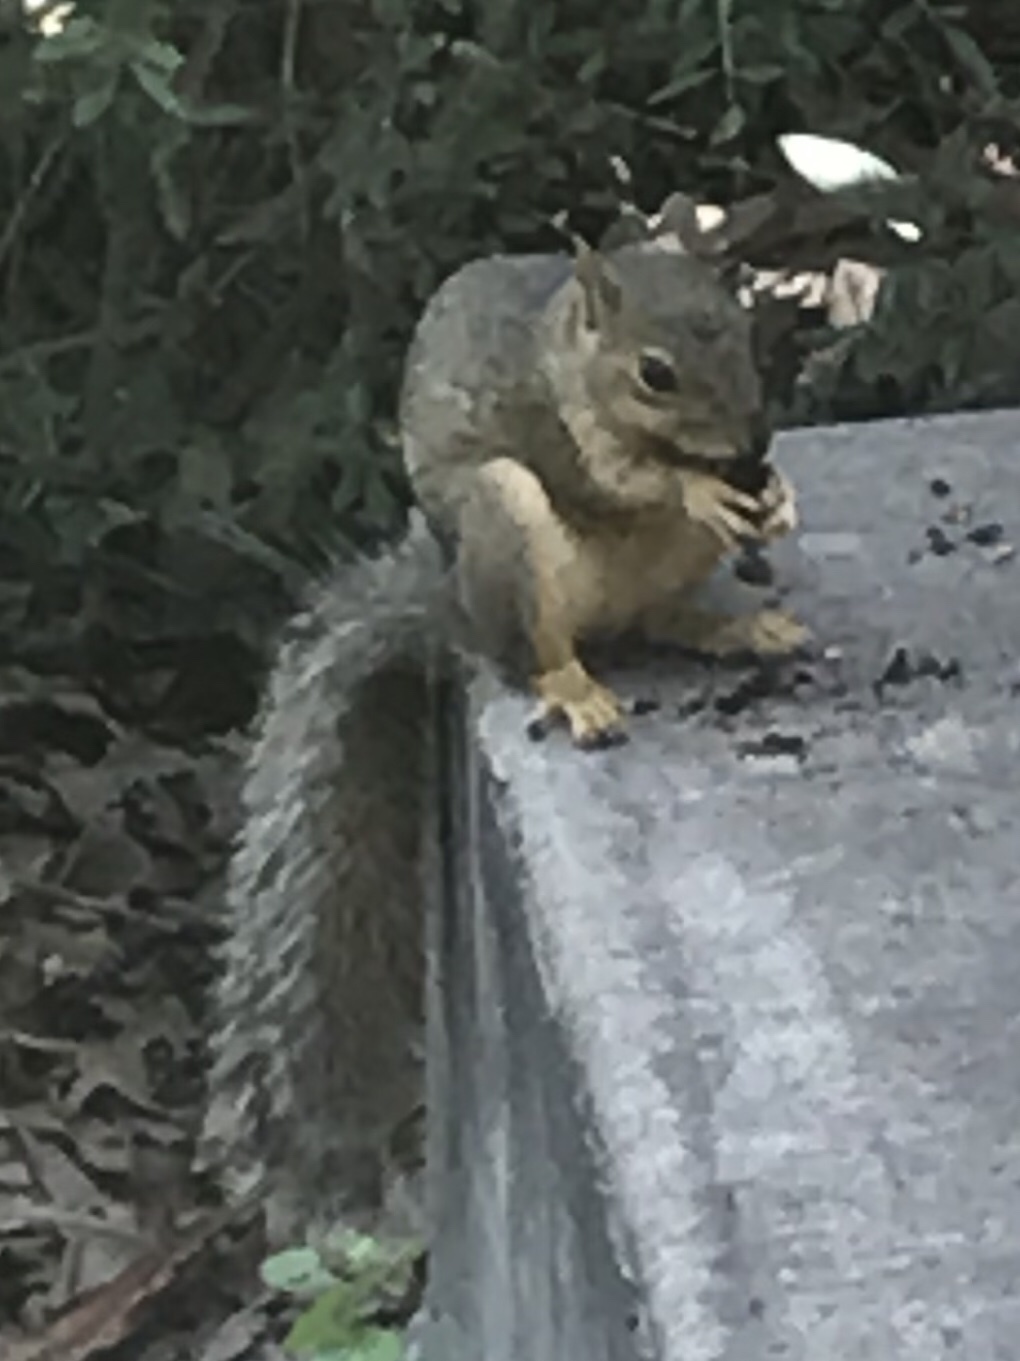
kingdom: Animalia
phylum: Chordata
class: Mammalia
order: Rodentia
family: Sciuridae
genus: Sciurus
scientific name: Sciurus niger
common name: Fox squirrel
